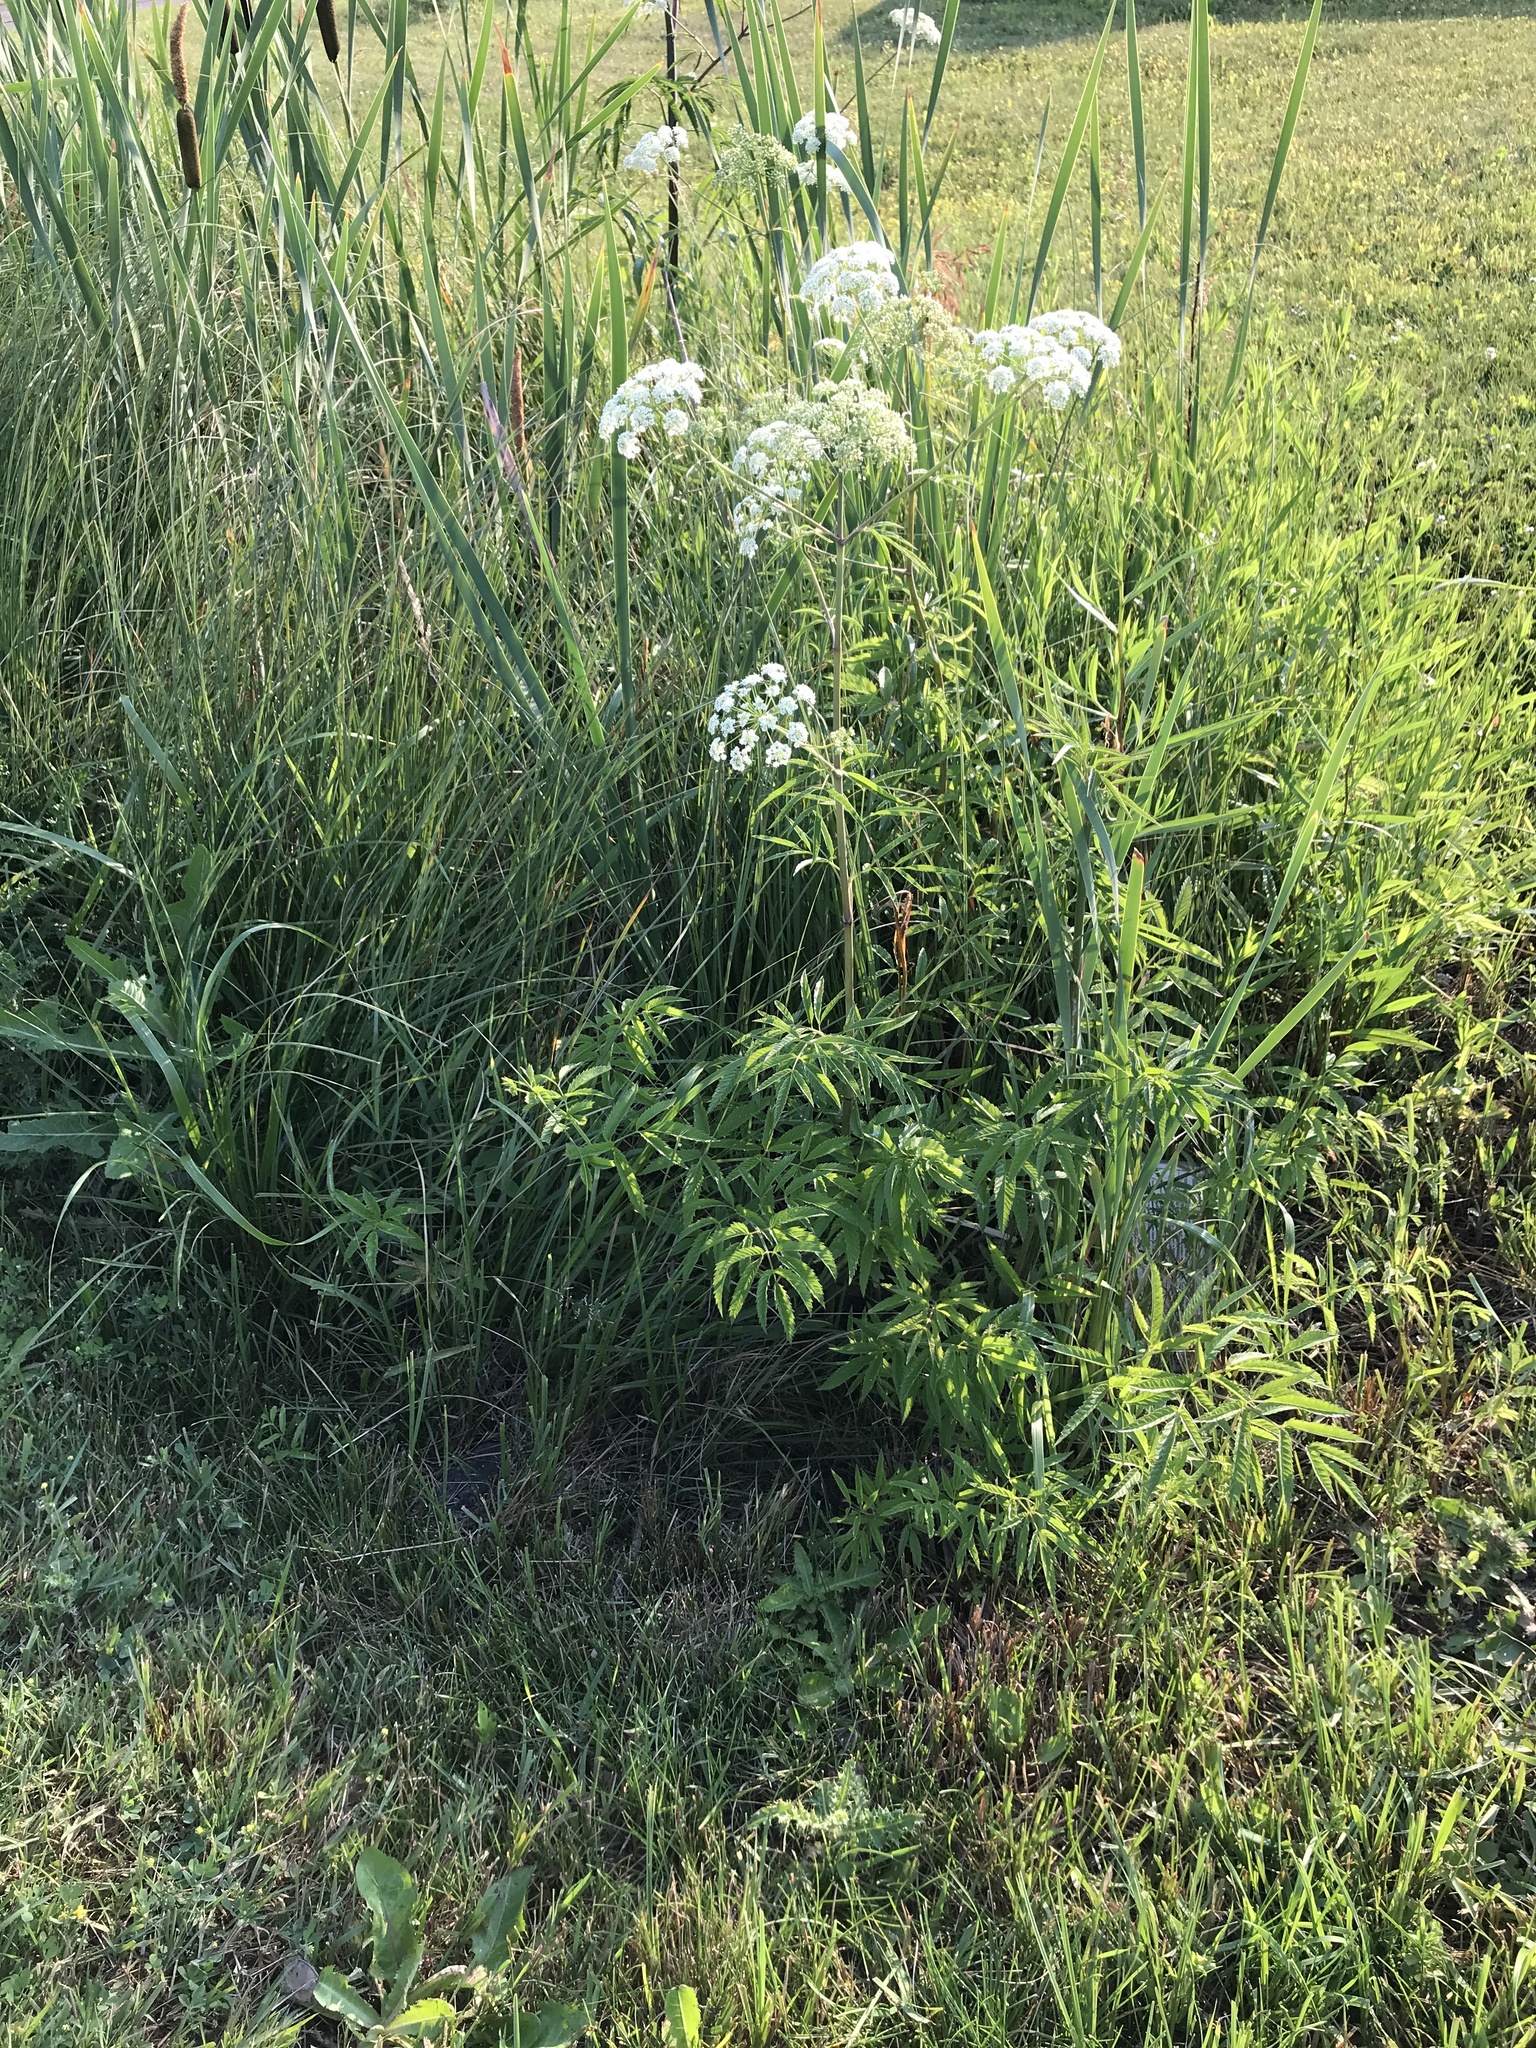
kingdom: Plantae
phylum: Tracheophyta
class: Magnoliopsida
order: Apiales
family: Apiaceae
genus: Cicuta
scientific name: Cicuta maculata
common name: Spotted cowbane
